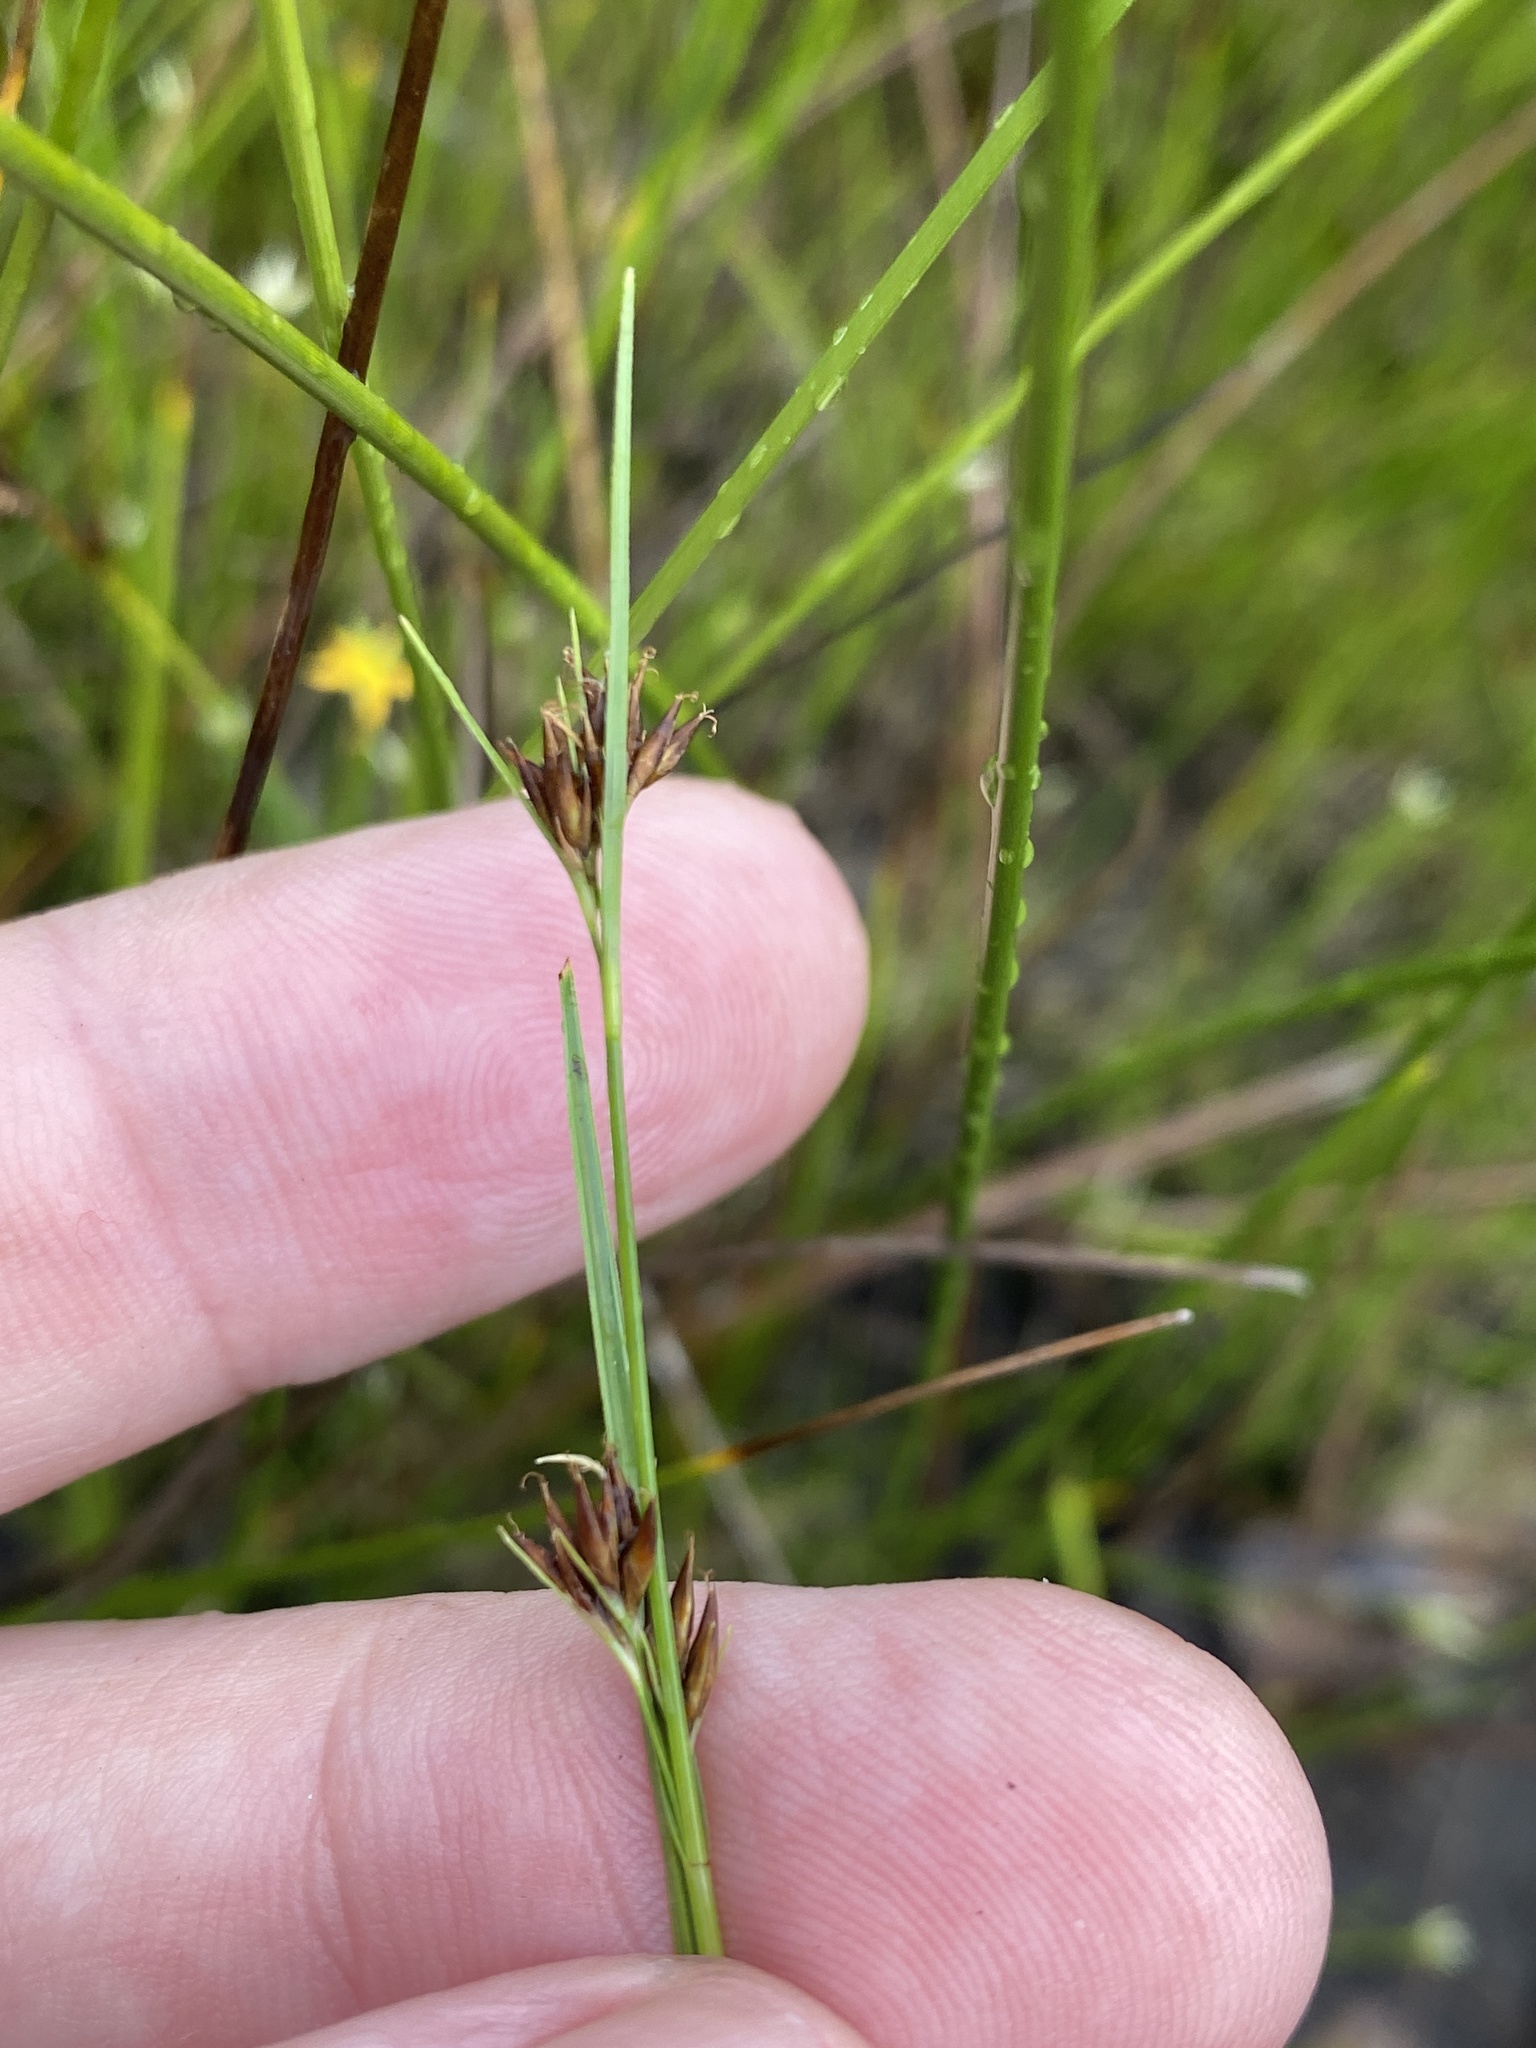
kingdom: Plantae
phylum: Tracheophyta
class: Liliopsida
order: Poales
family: Cyperaceae
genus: Rhynchospora
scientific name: Rhynchospora capitellata
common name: Brownish beaksedge
